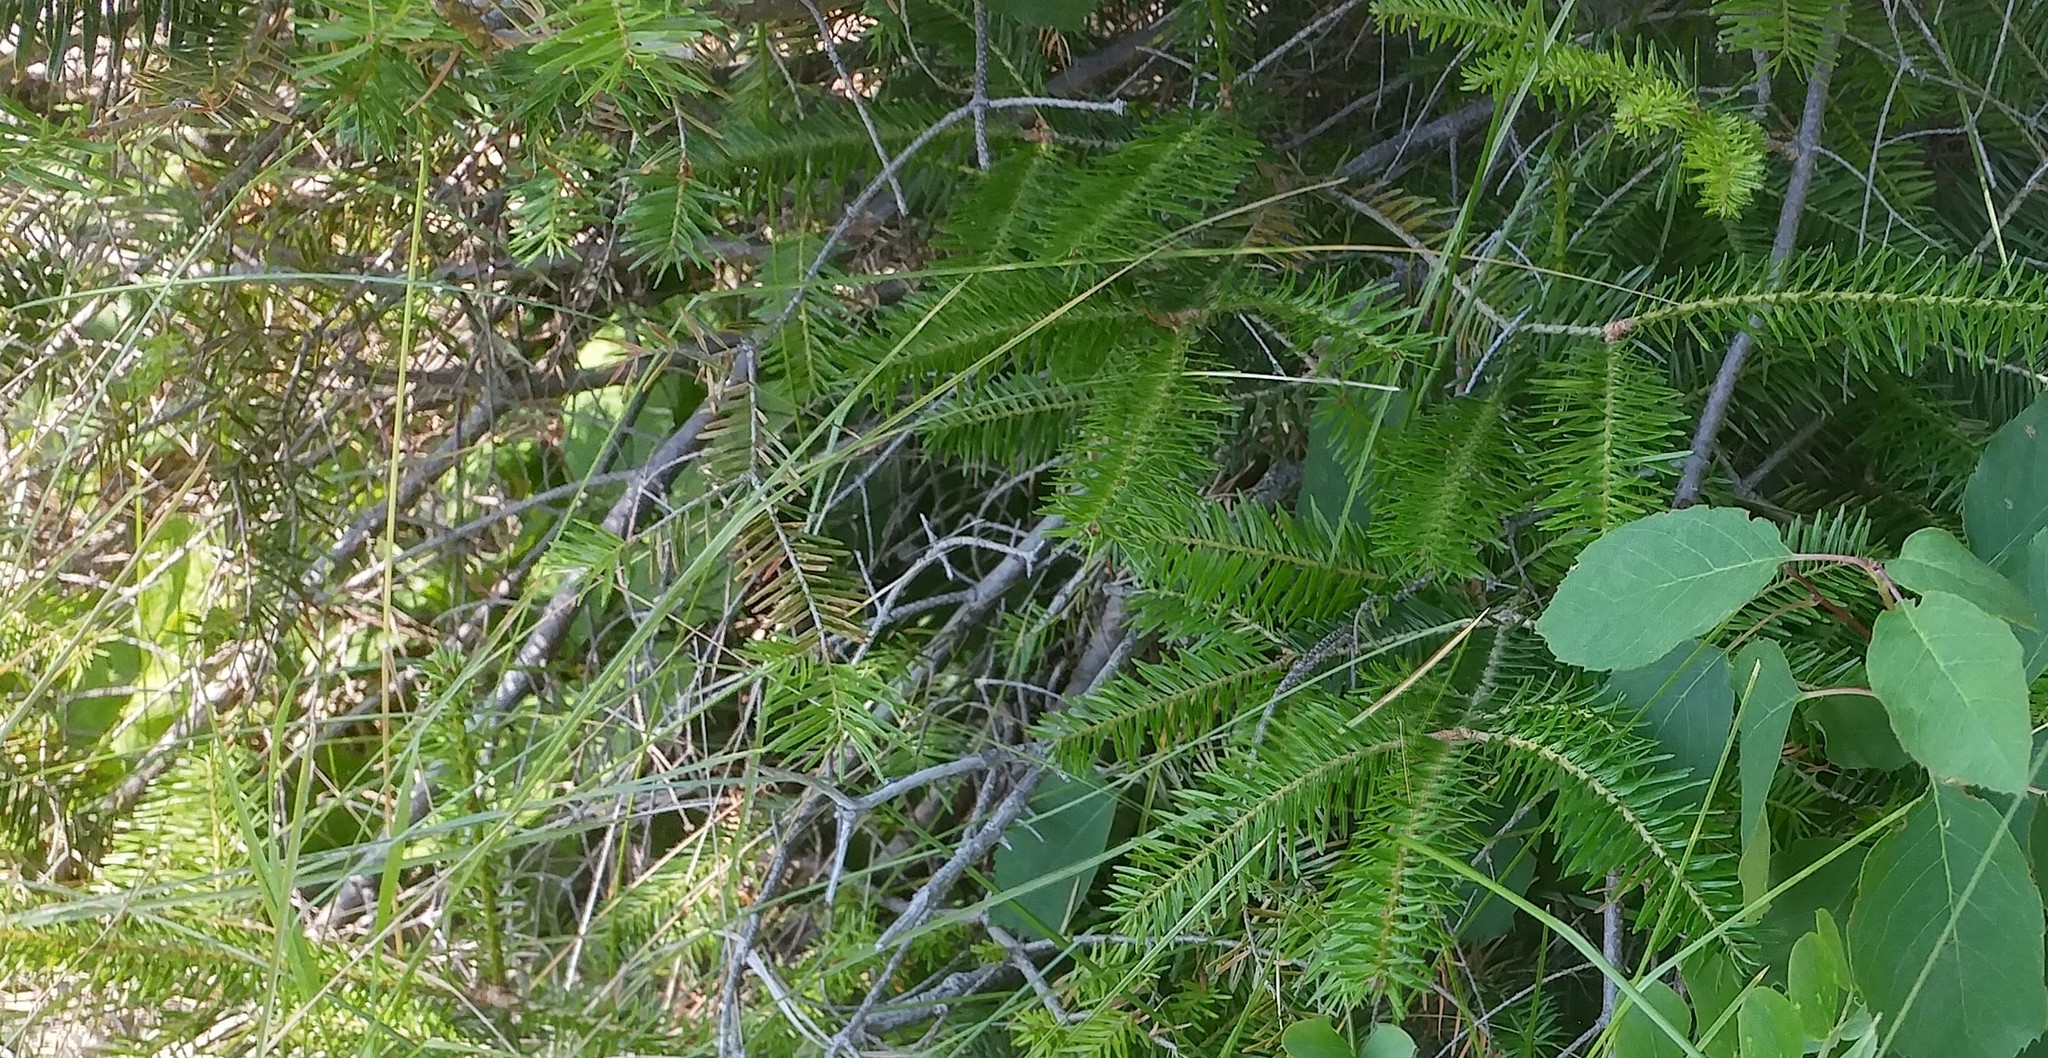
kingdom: Plantae
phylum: Tracheophyta
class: Pinopsida
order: Pinales
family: Pinaceae
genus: Abies
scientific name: Abies balsamea
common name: Balsam fir
